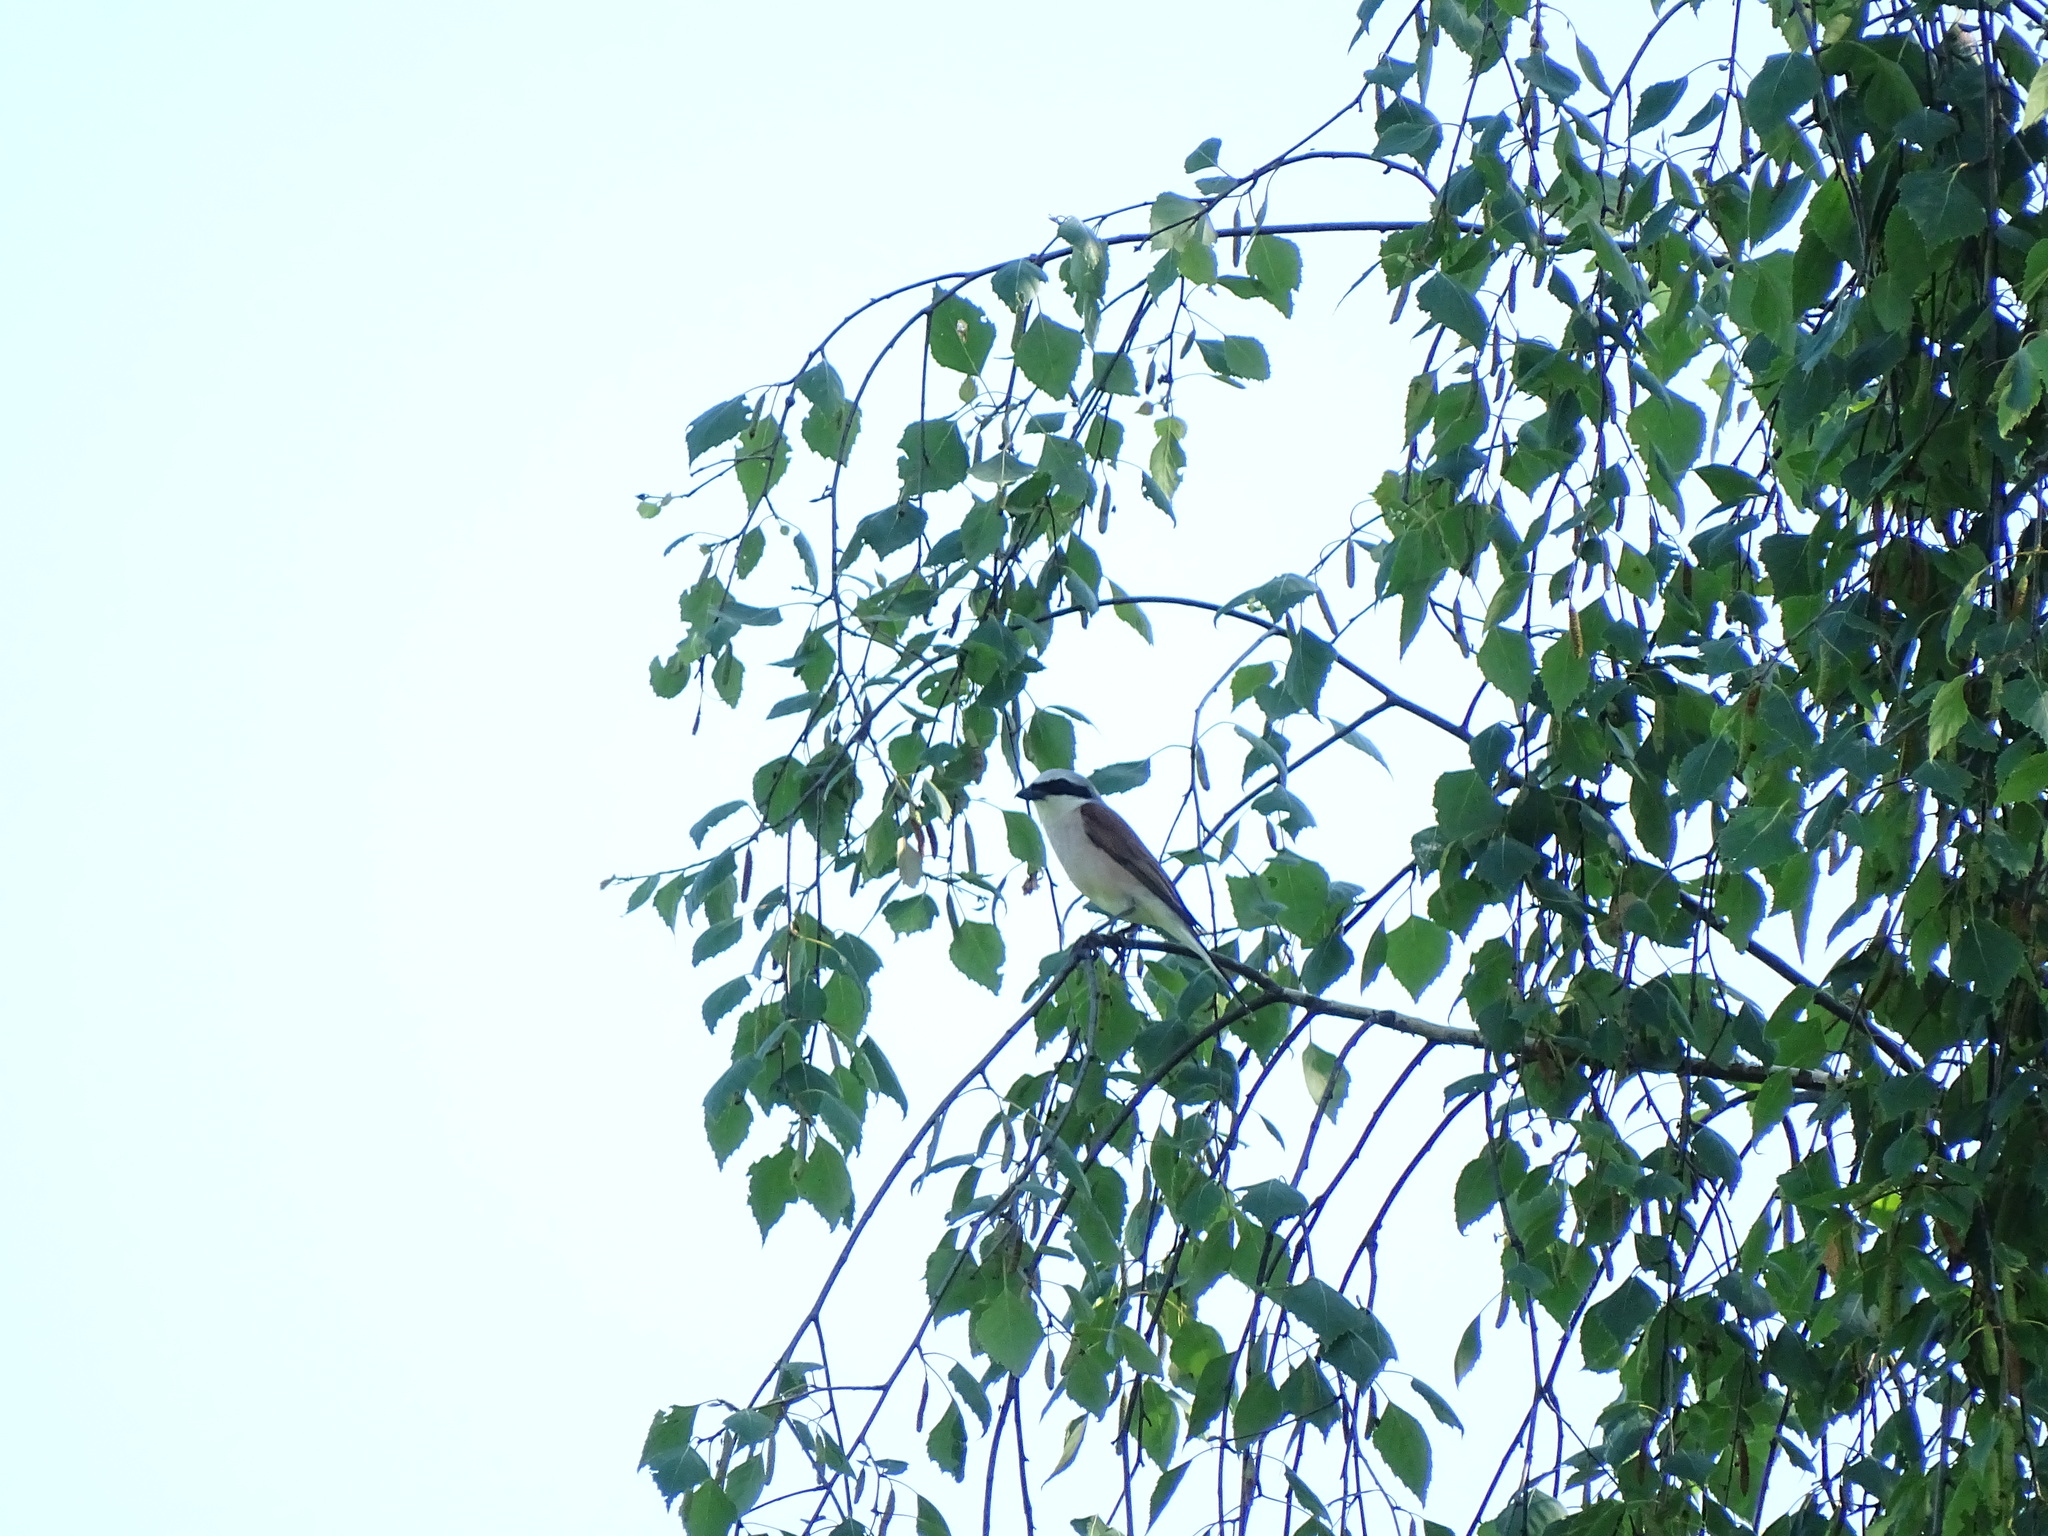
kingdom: Animalia
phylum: Chordata
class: Aves
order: Passeriformes
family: Laniidae
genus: Lanius
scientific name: Lanius collurio
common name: Red-backed shrike
